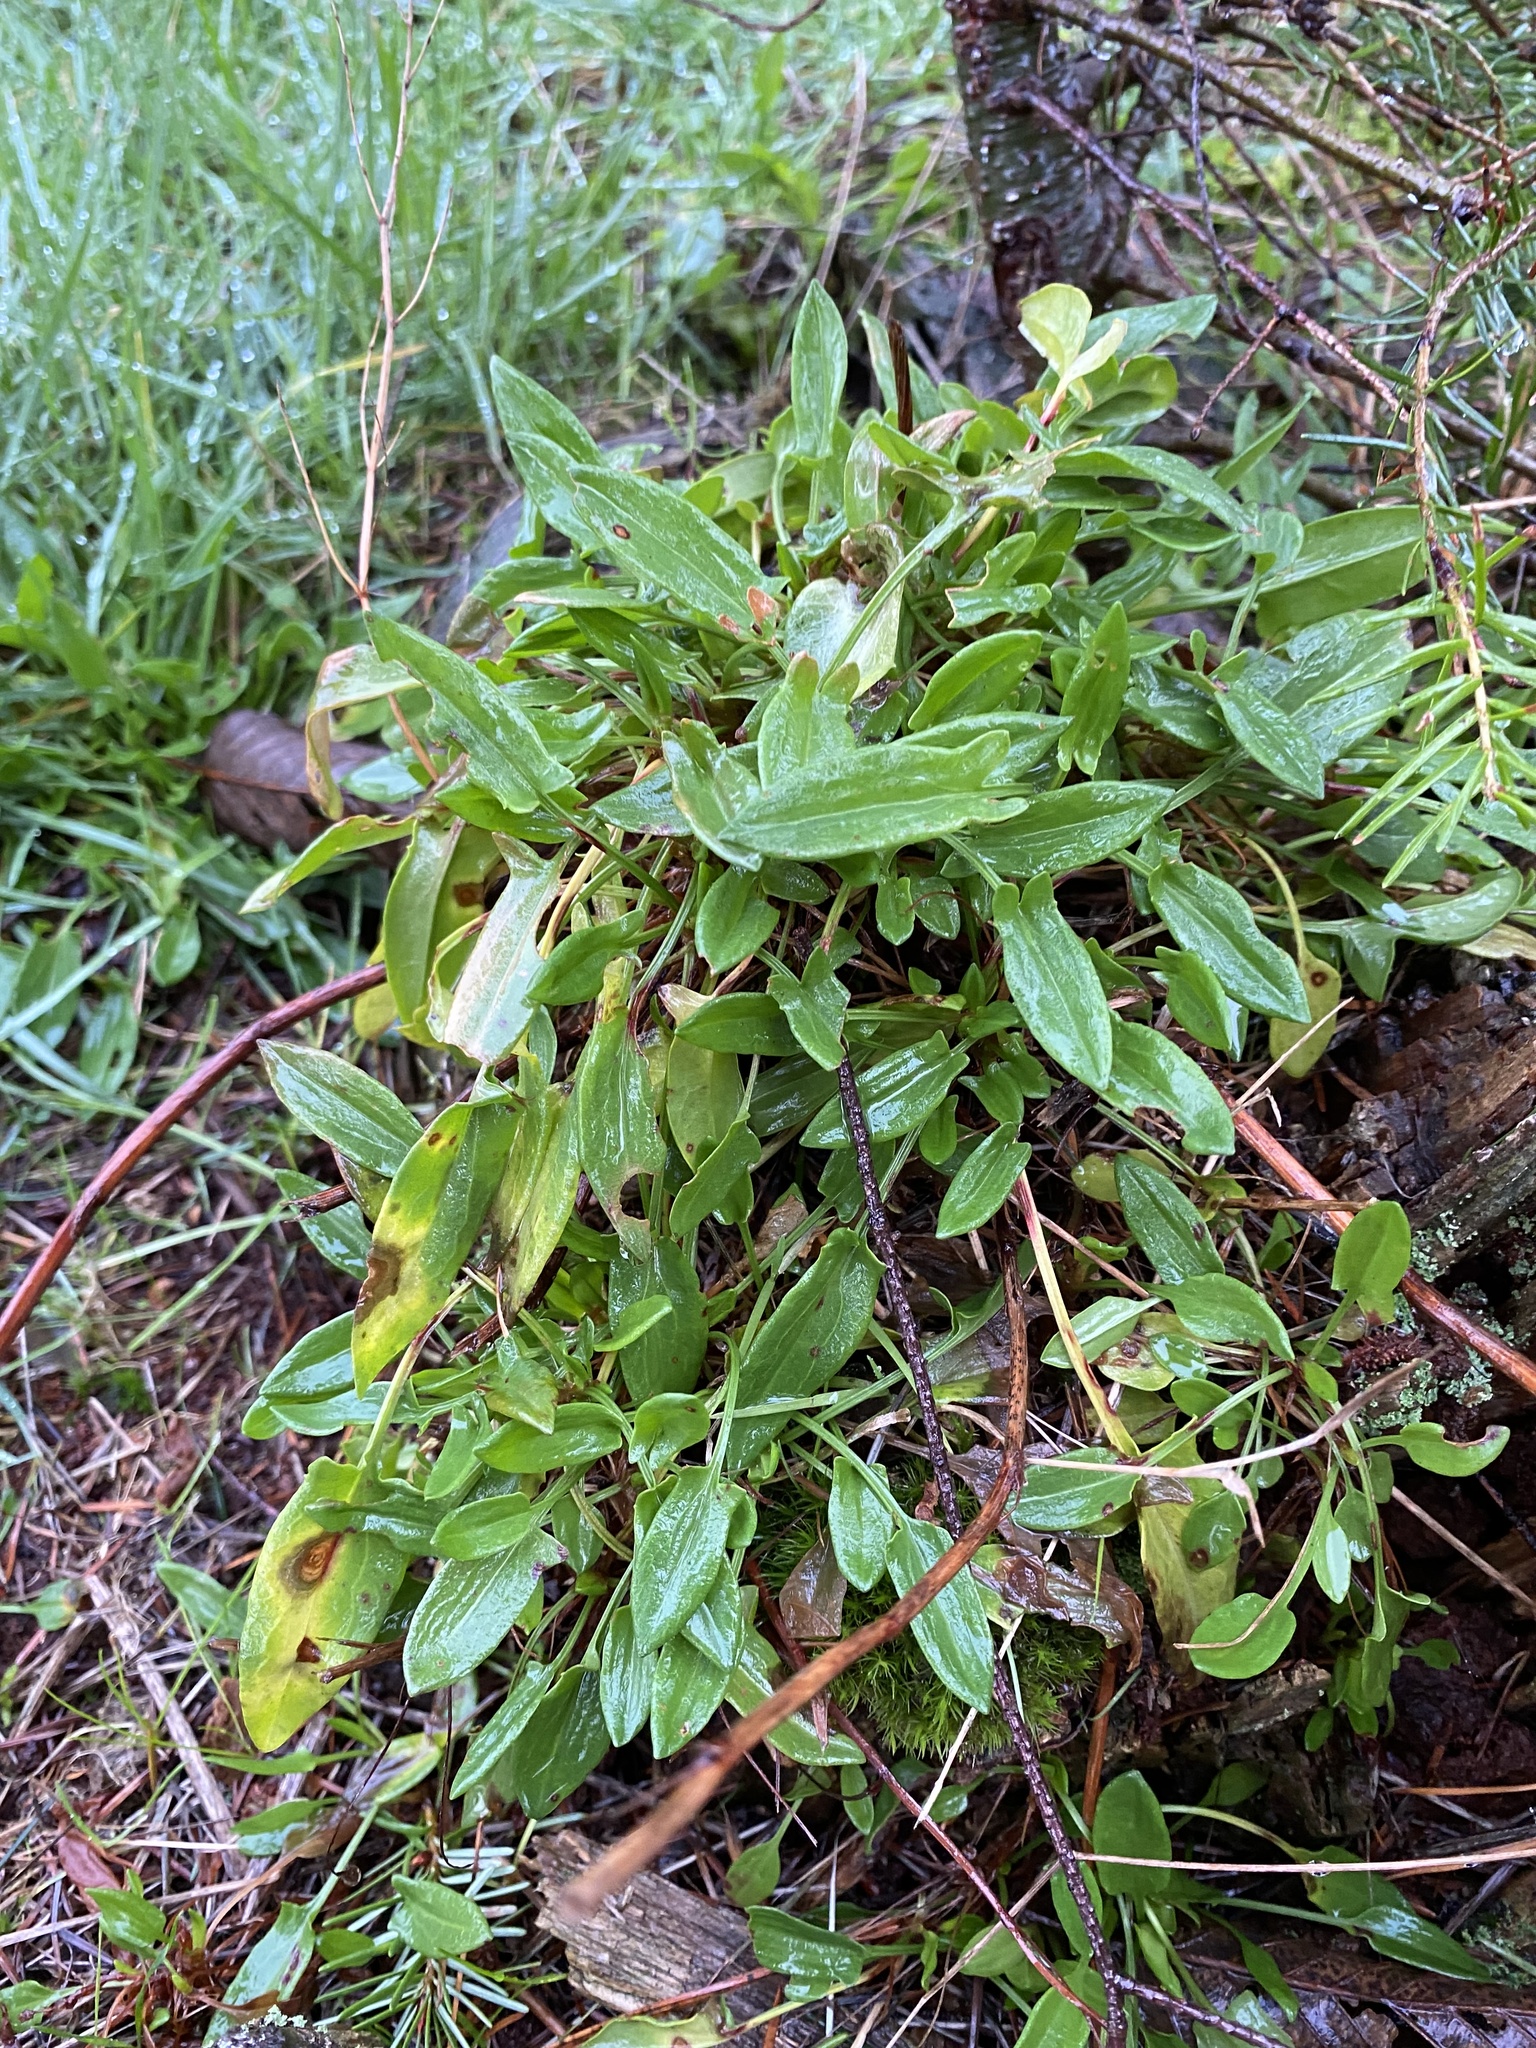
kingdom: Plantae
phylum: Tracheophyta
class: Magnoliopsida
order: Caryophyllales
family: Polygonaceae
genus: Rumex
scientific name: Rumex acetosella
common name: Common sheep sorrel
